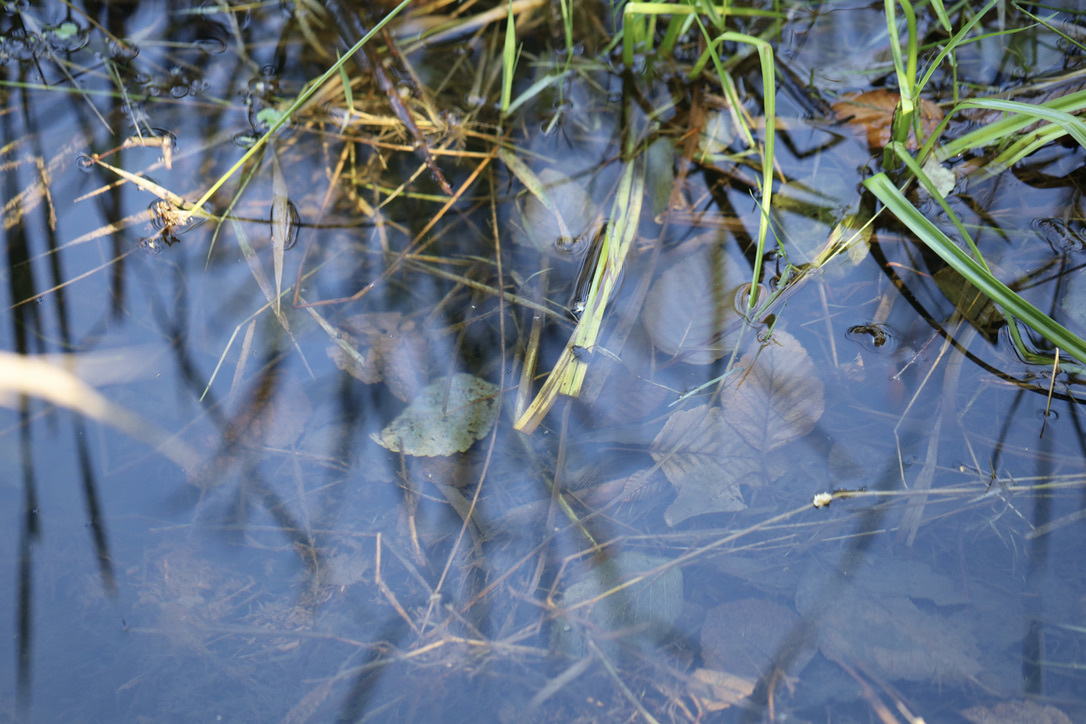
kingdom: Animalia
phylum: Arthropoda
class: Insecta
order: Coleoptera
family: Dytiscidae
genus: Acilius
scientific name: Acilius abbreviatus
